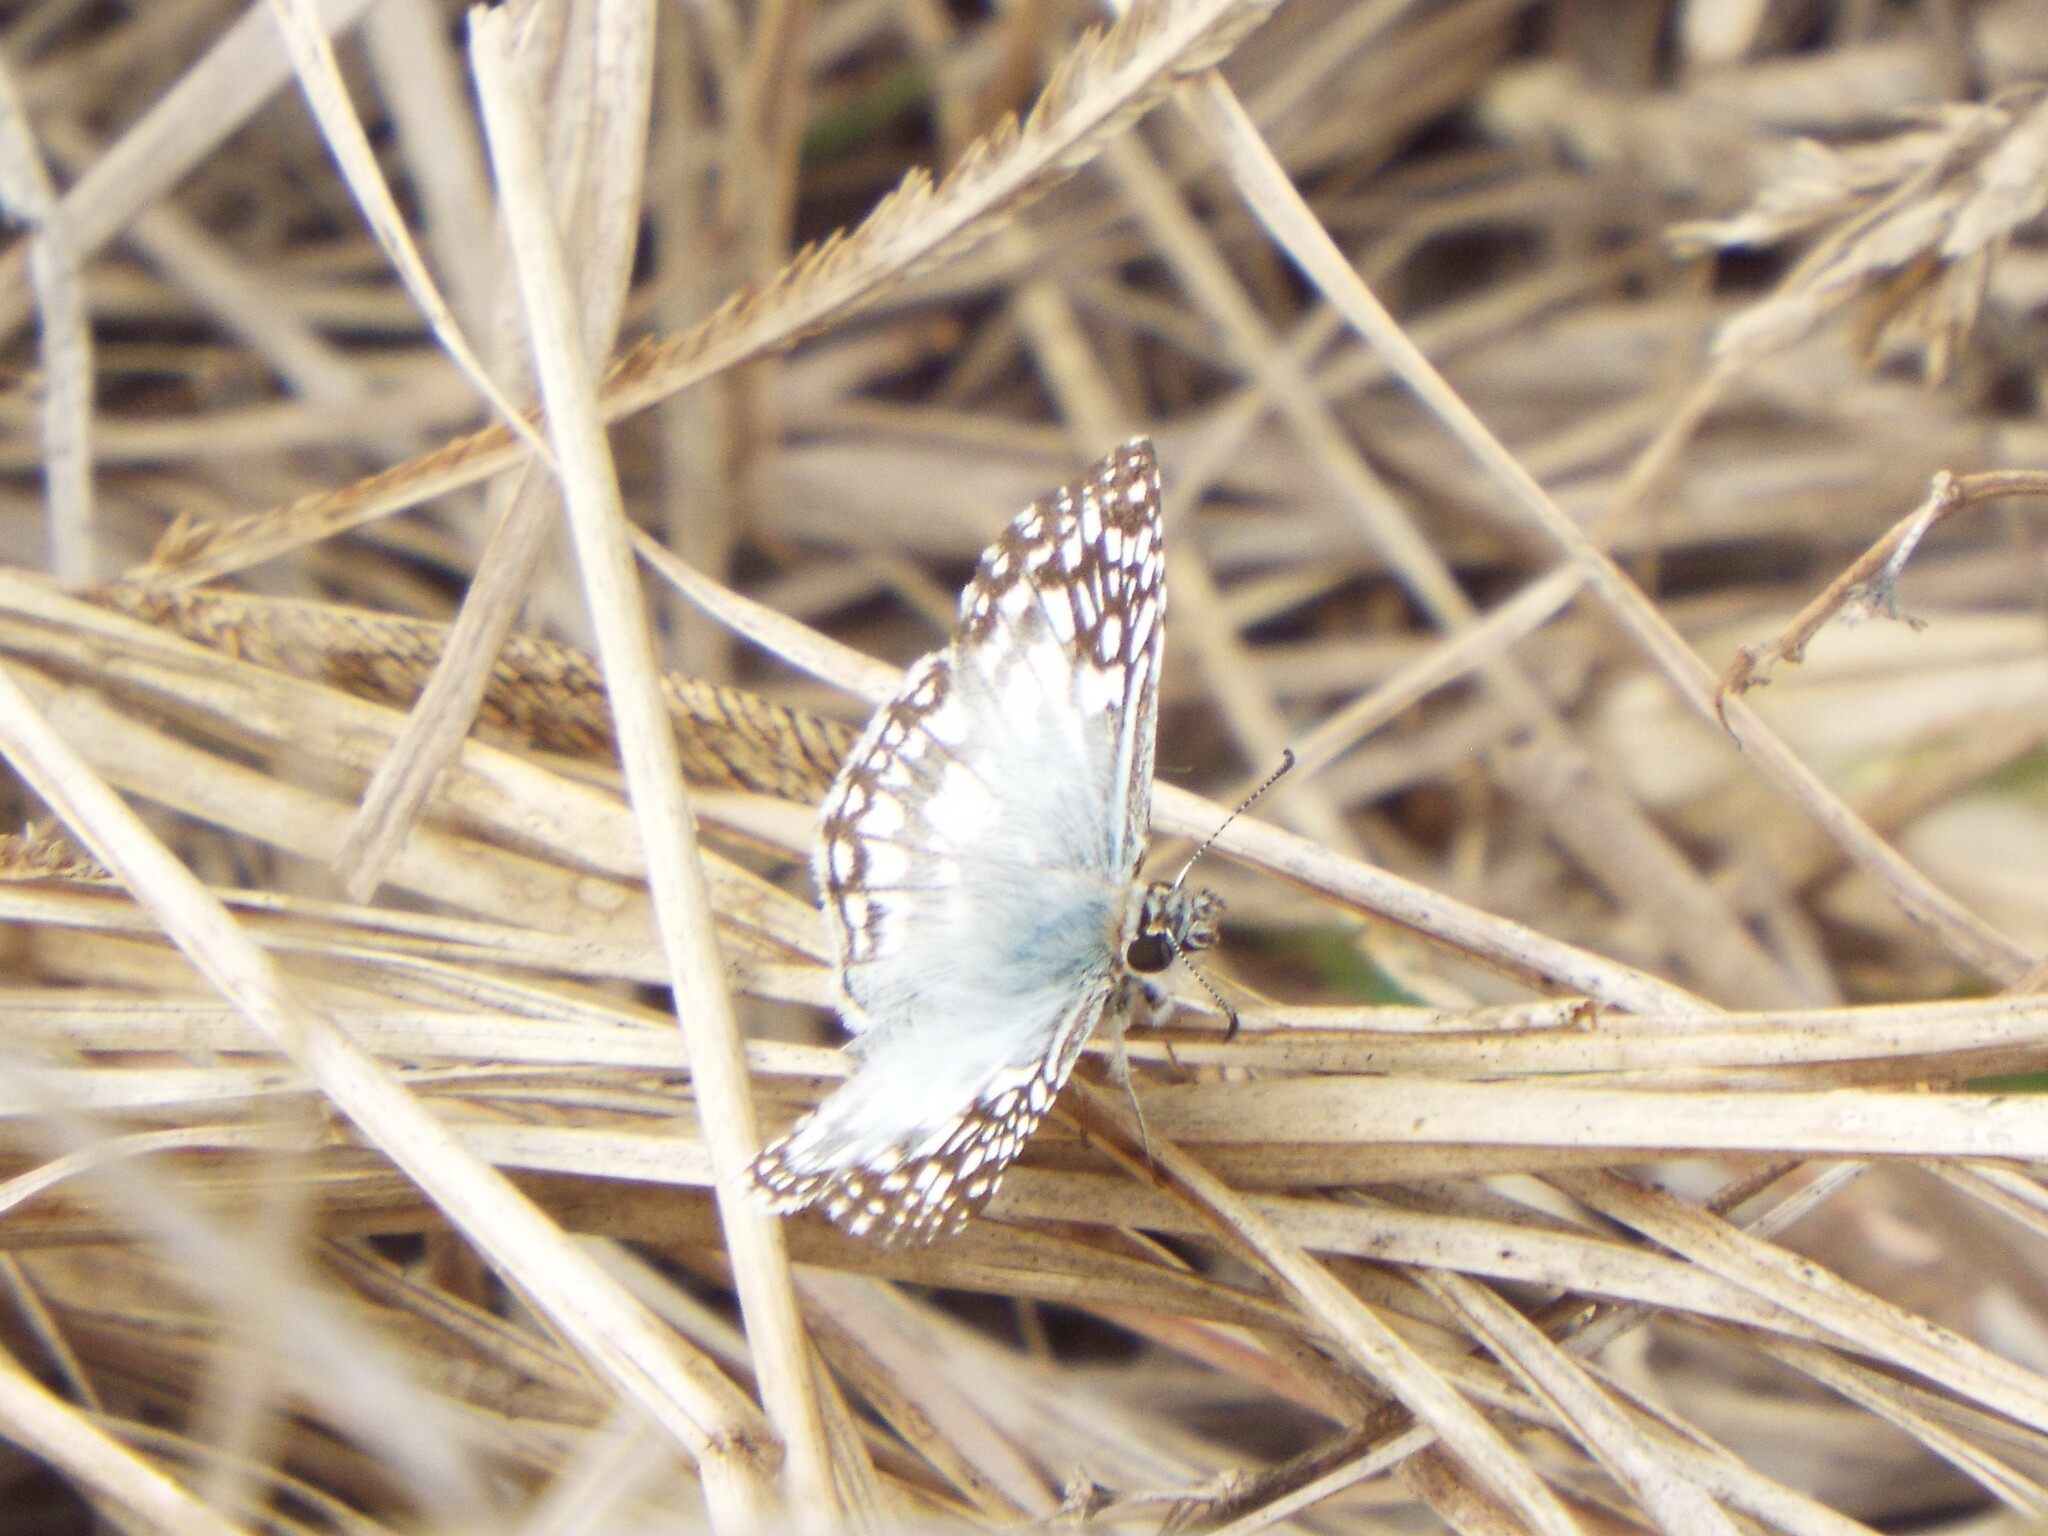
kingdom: Animalia
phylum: Arthropoda
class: Insecta
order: Lepidoptera
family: Hesperiidae
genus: Pyrgus
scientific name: Pyrgus oileus
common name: Tropical checkered-skipper
